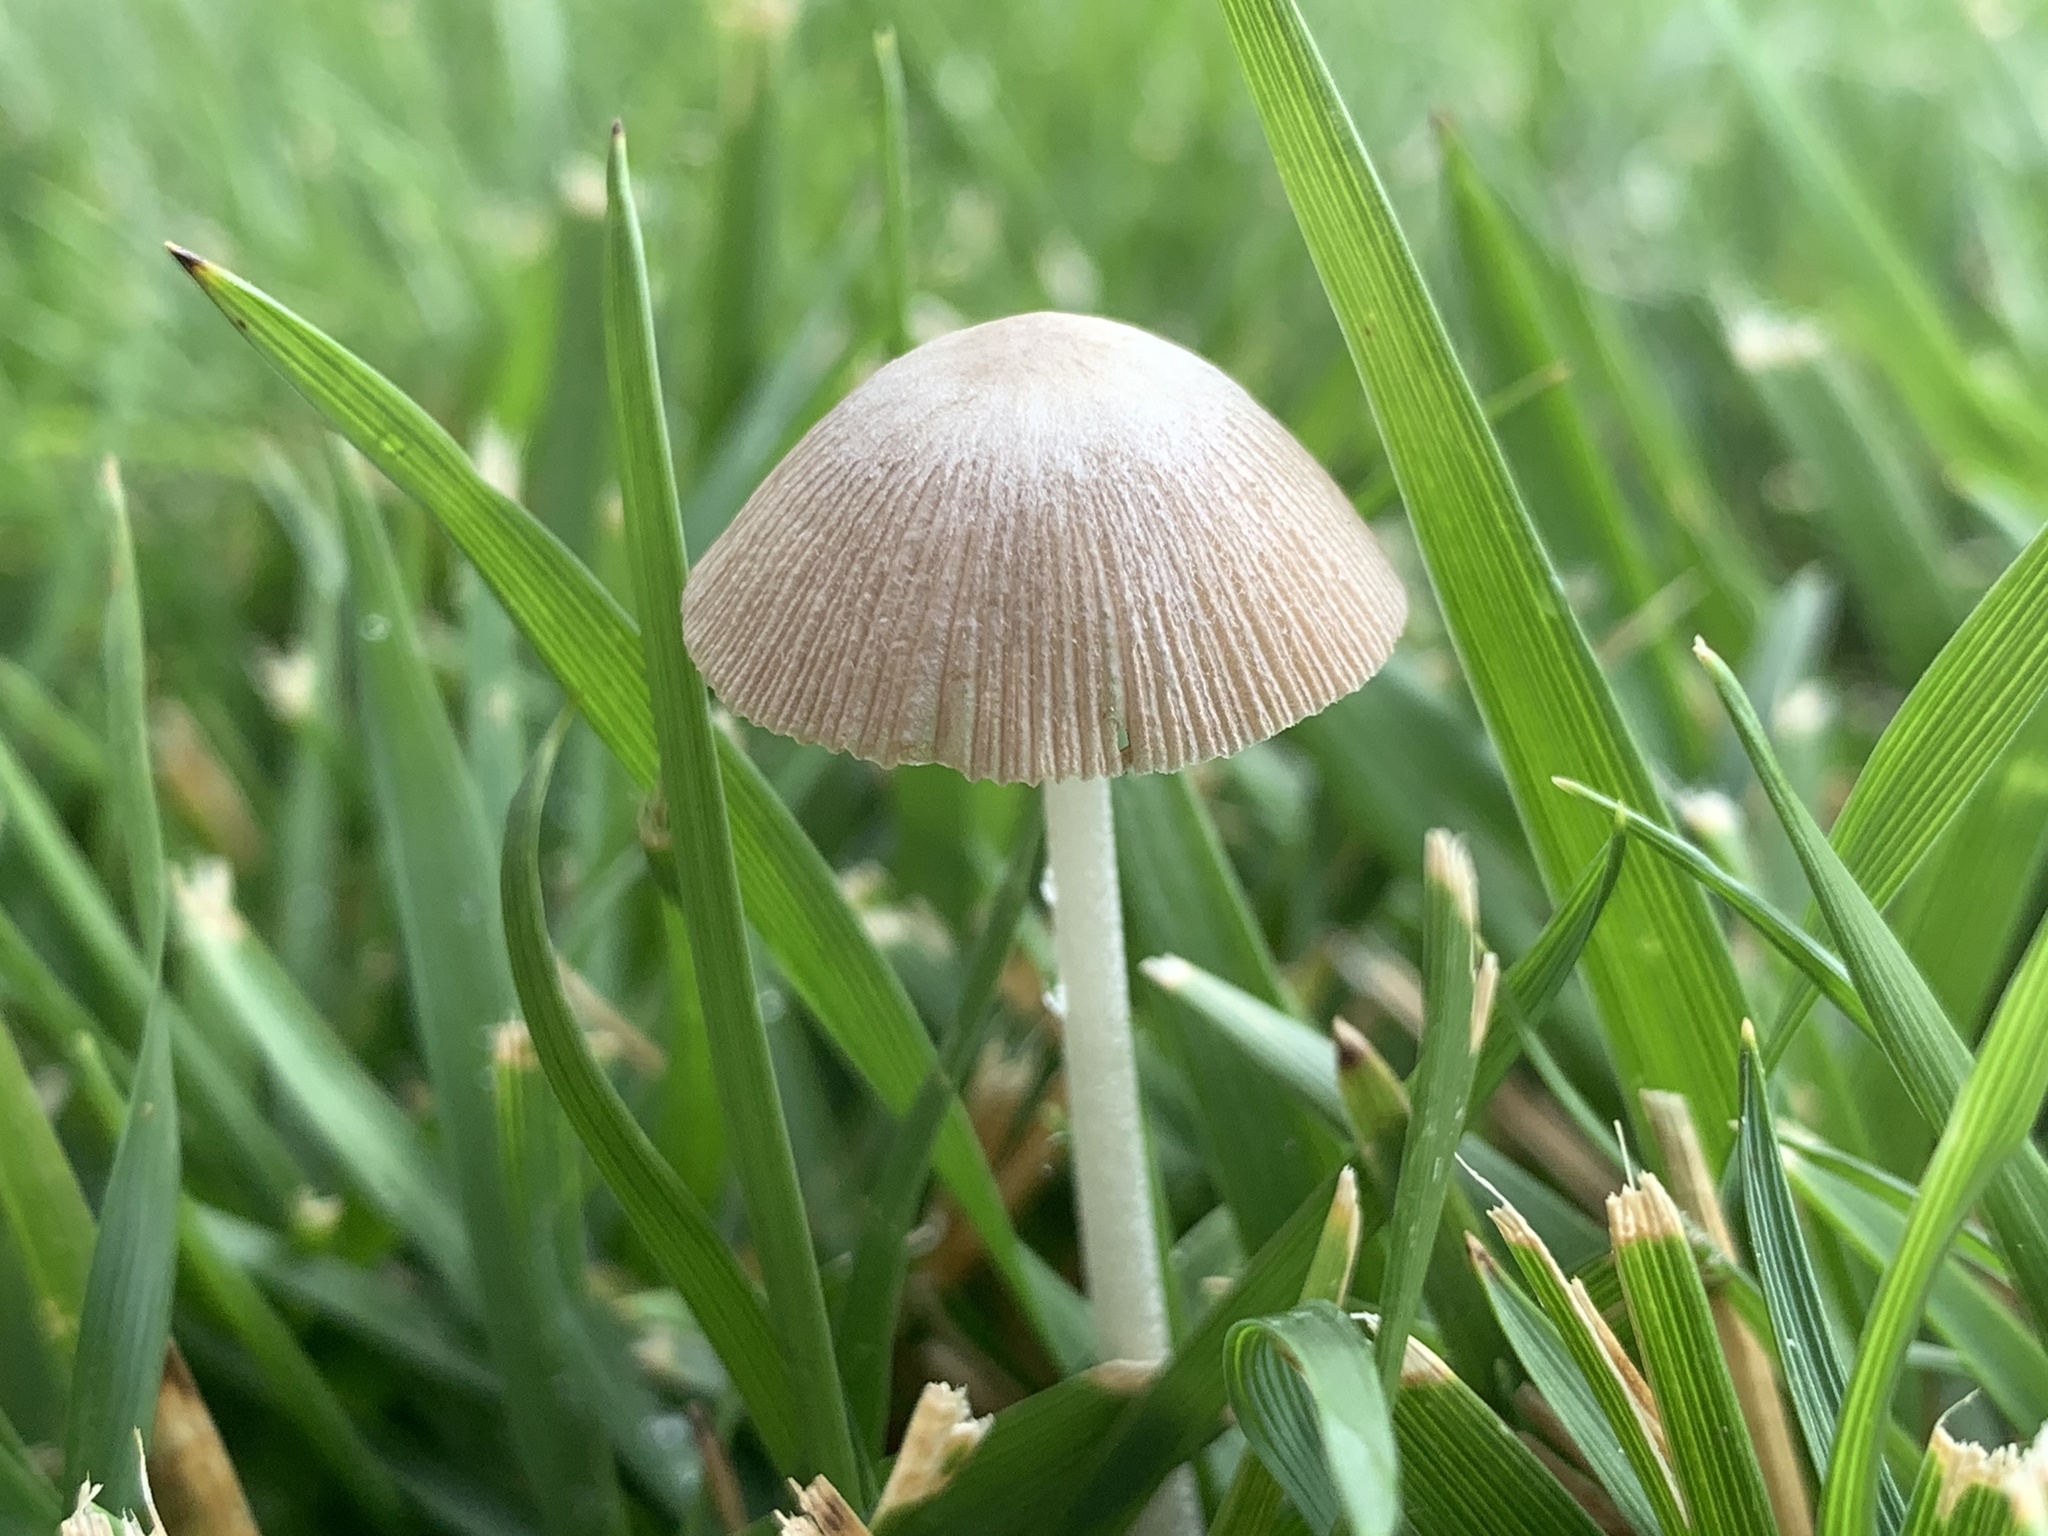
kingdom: Fungi
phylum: Basidiomycota
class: Agaricomycetes
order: Agaricales
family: Bolbitiaceae
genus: Conocybe
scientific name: Conocybe apala
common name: Milky conecap
